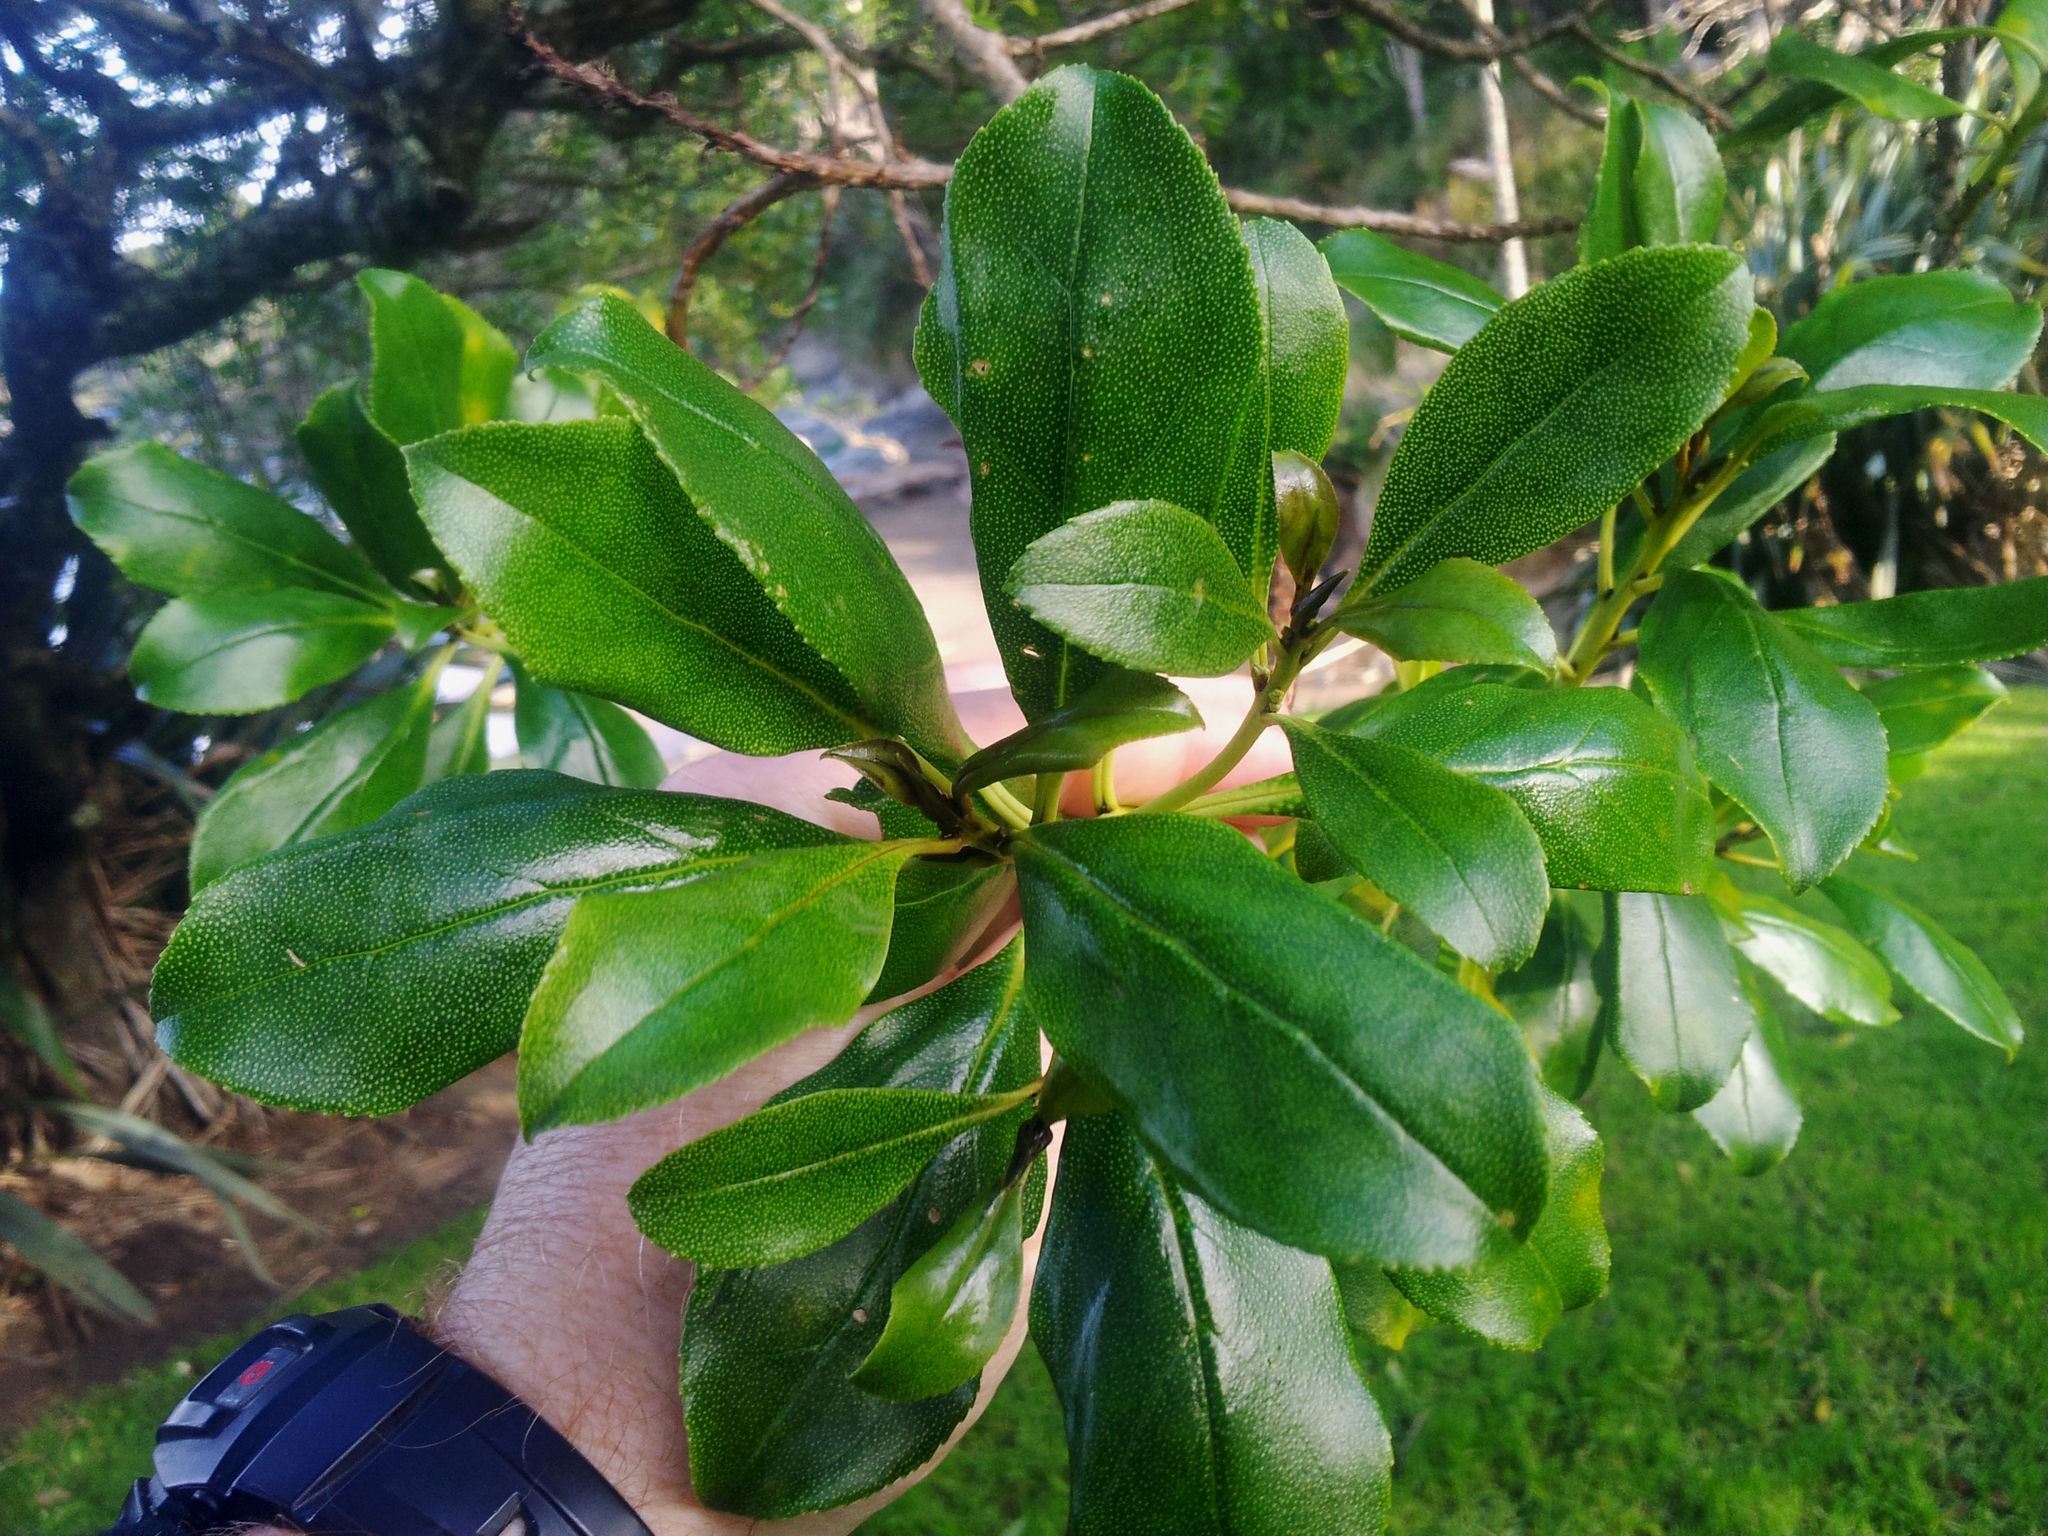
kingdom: Plantae
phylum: Tracheophyta
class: Magnoliopsida
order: Lamiales
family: Scrophulariaceae
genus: Myoporum
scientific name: Myoporum laetum
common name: Ngaio tree
